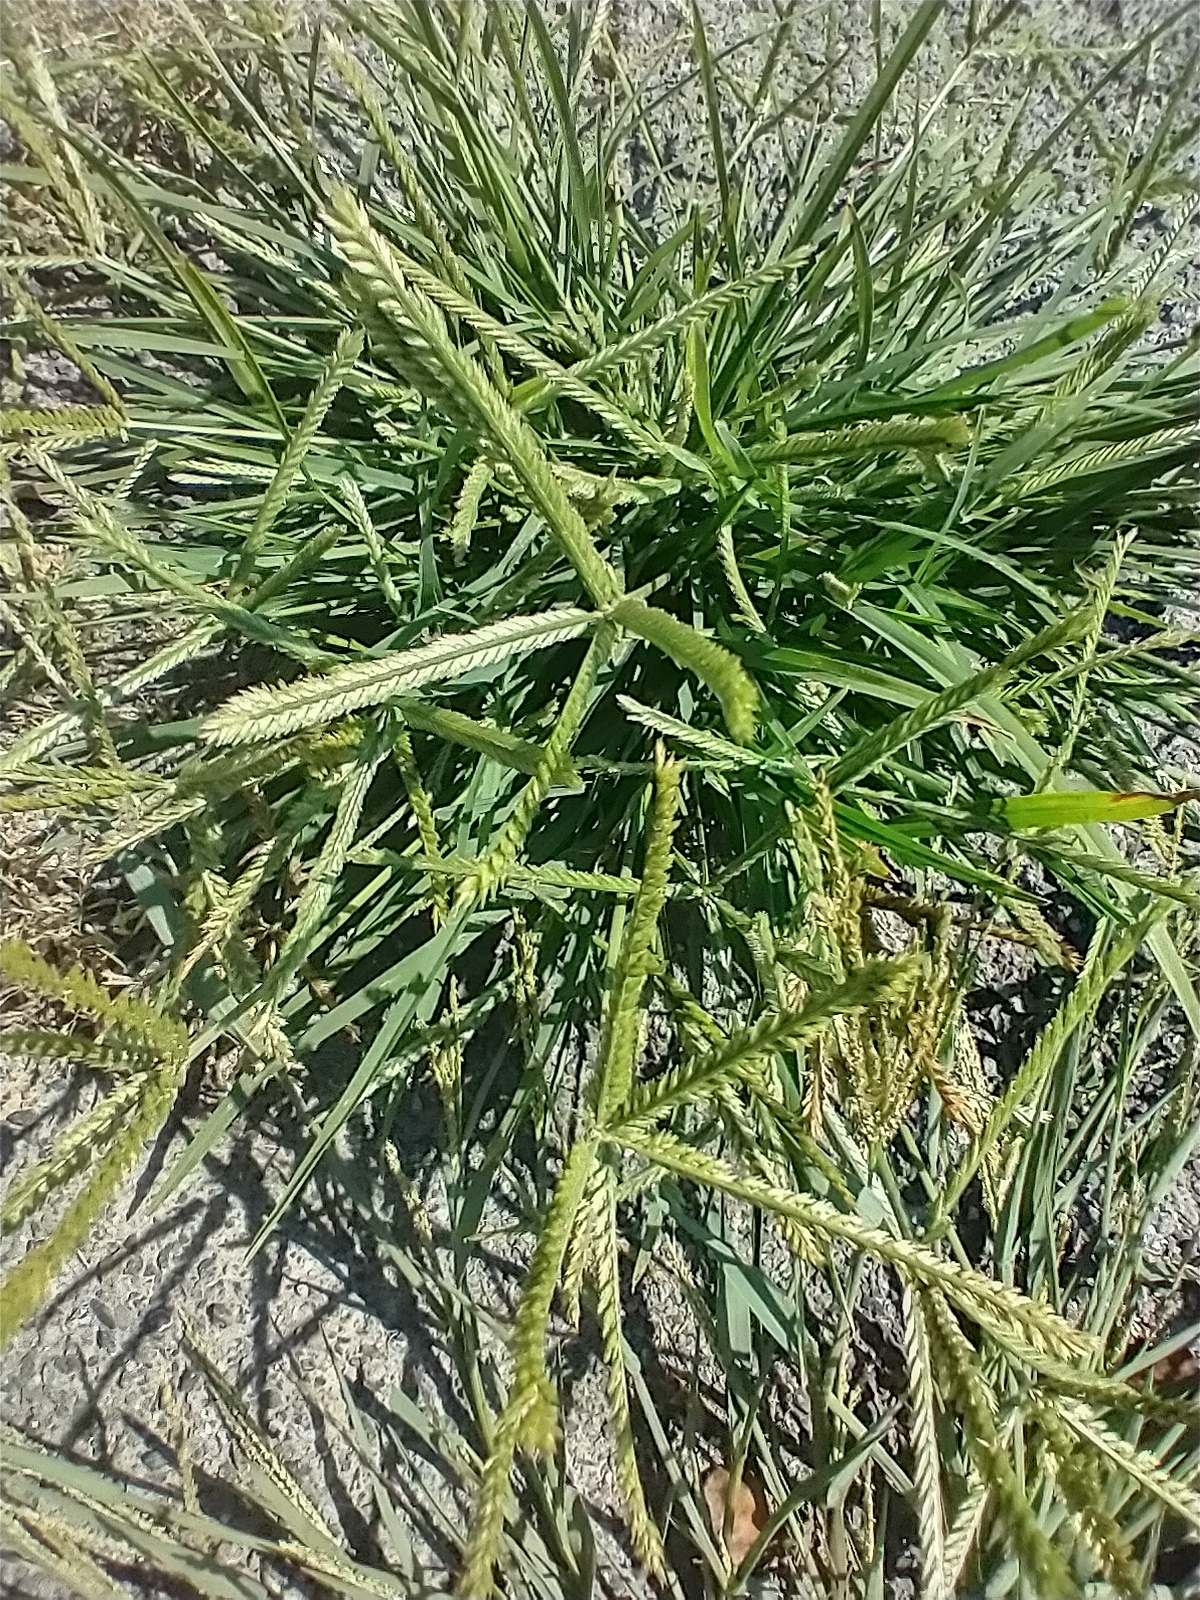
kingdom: Plantae
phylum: Tracheophyta
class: Liliopsida
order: Poales
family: Poaceae
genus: Eleusine
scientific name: Eleusine indica
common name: Yard-grass
